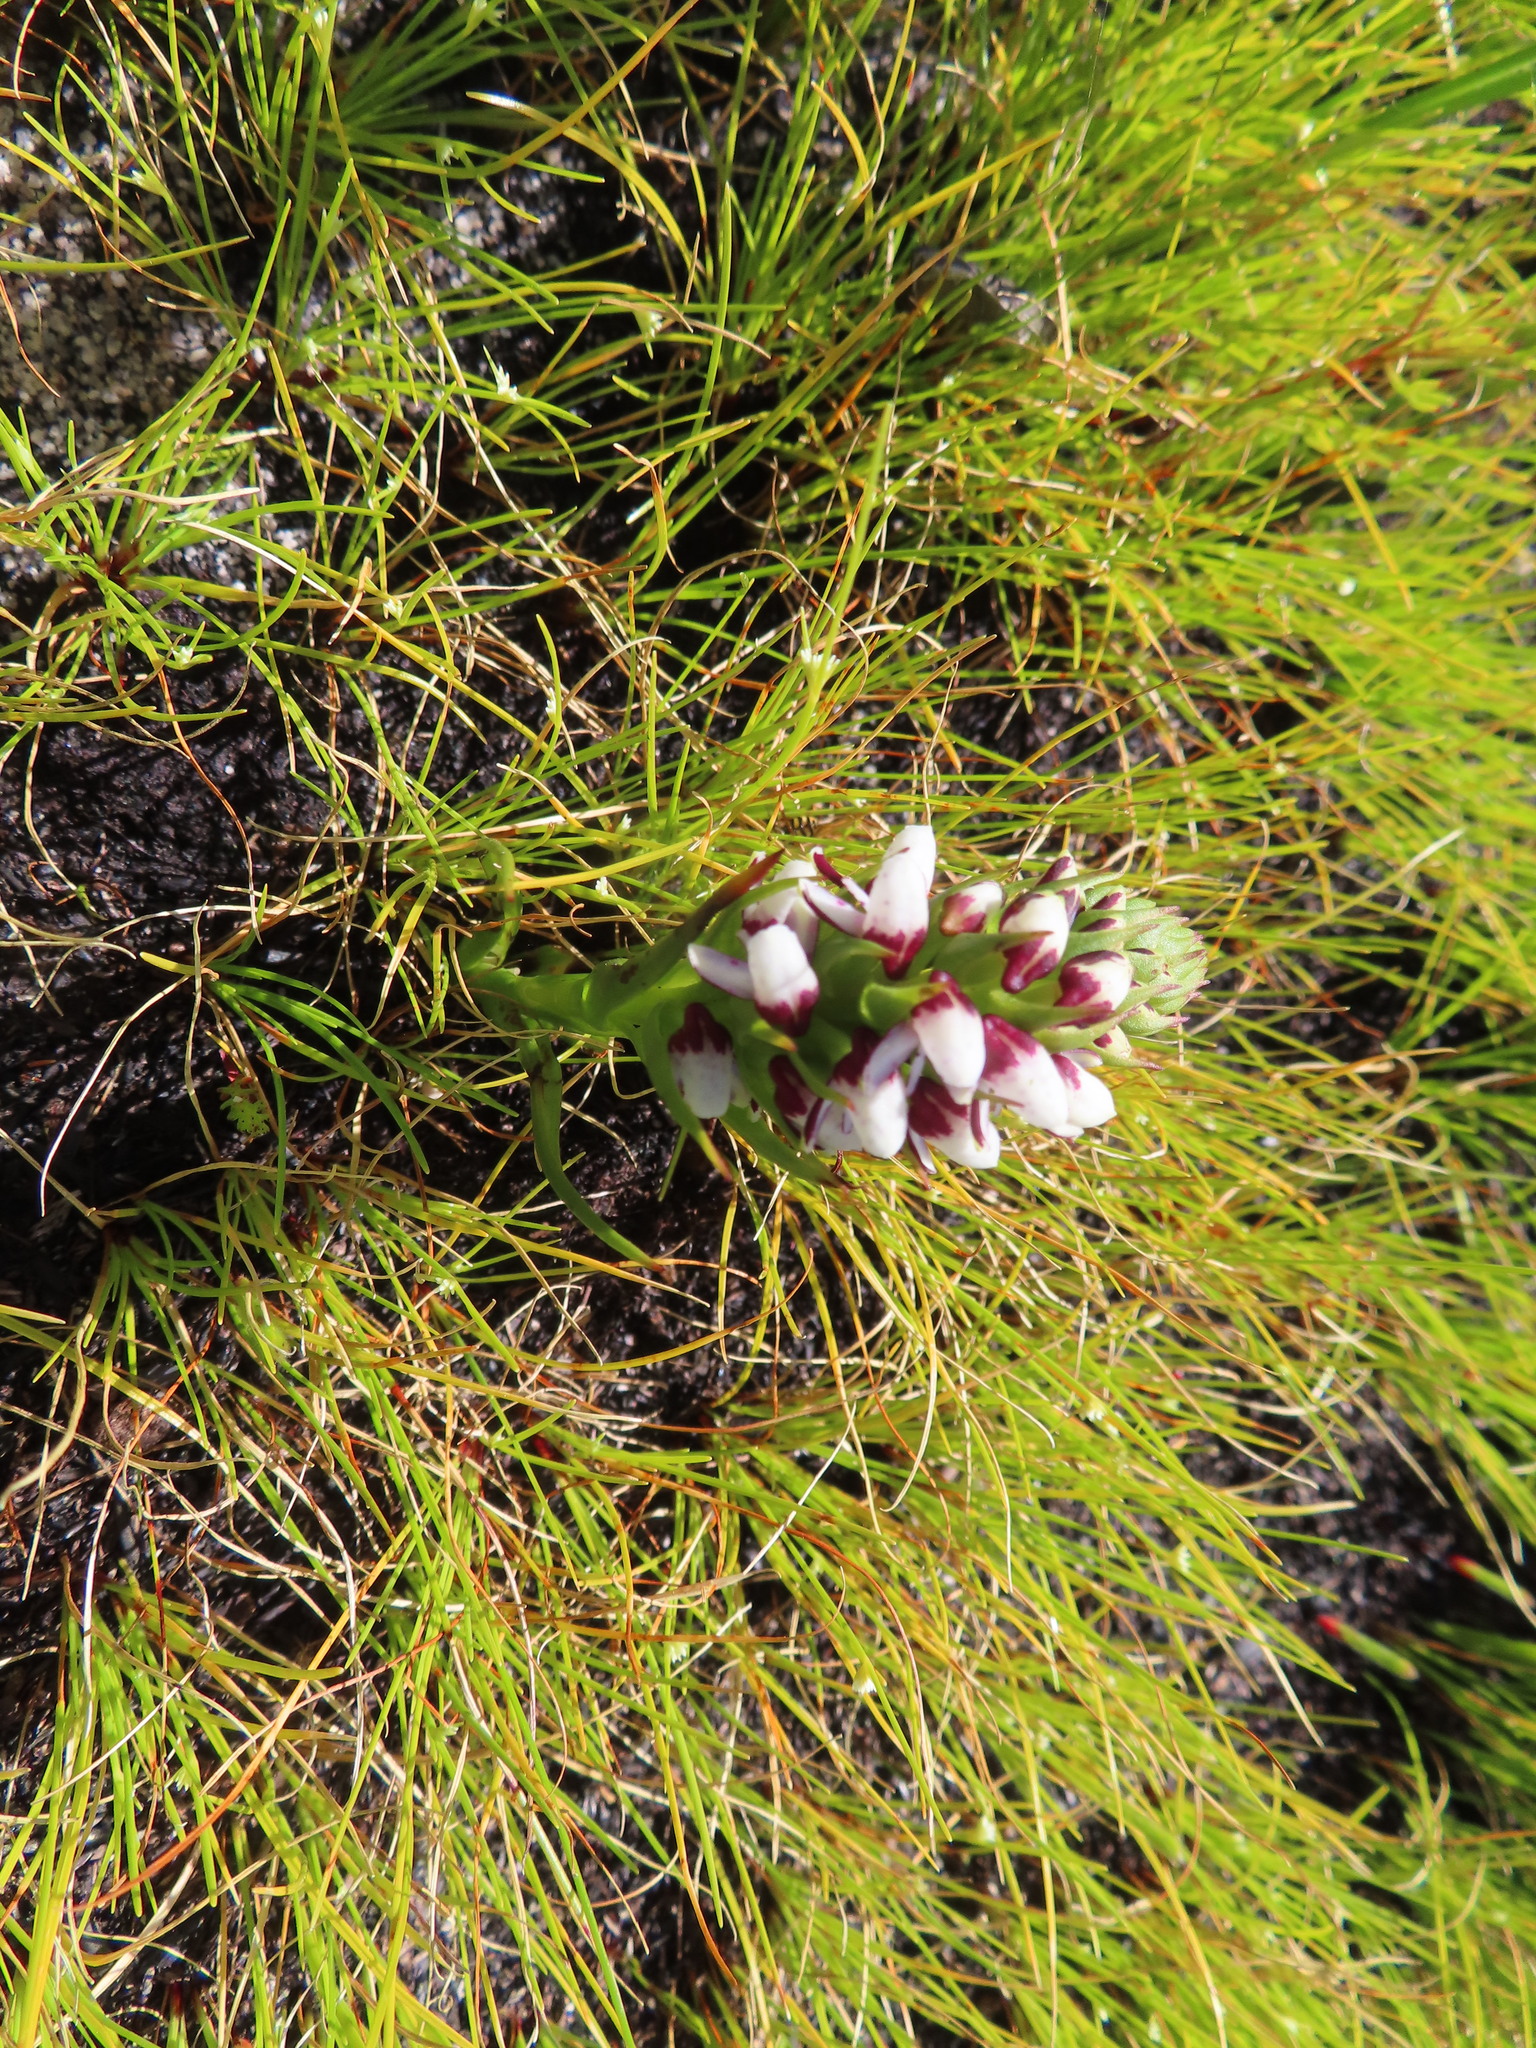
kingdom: Plantae
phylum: Tracheophyta
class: Liliopsida
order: Asparagales
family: Orchidaceae
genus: Disa
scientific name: Disa obtusa
